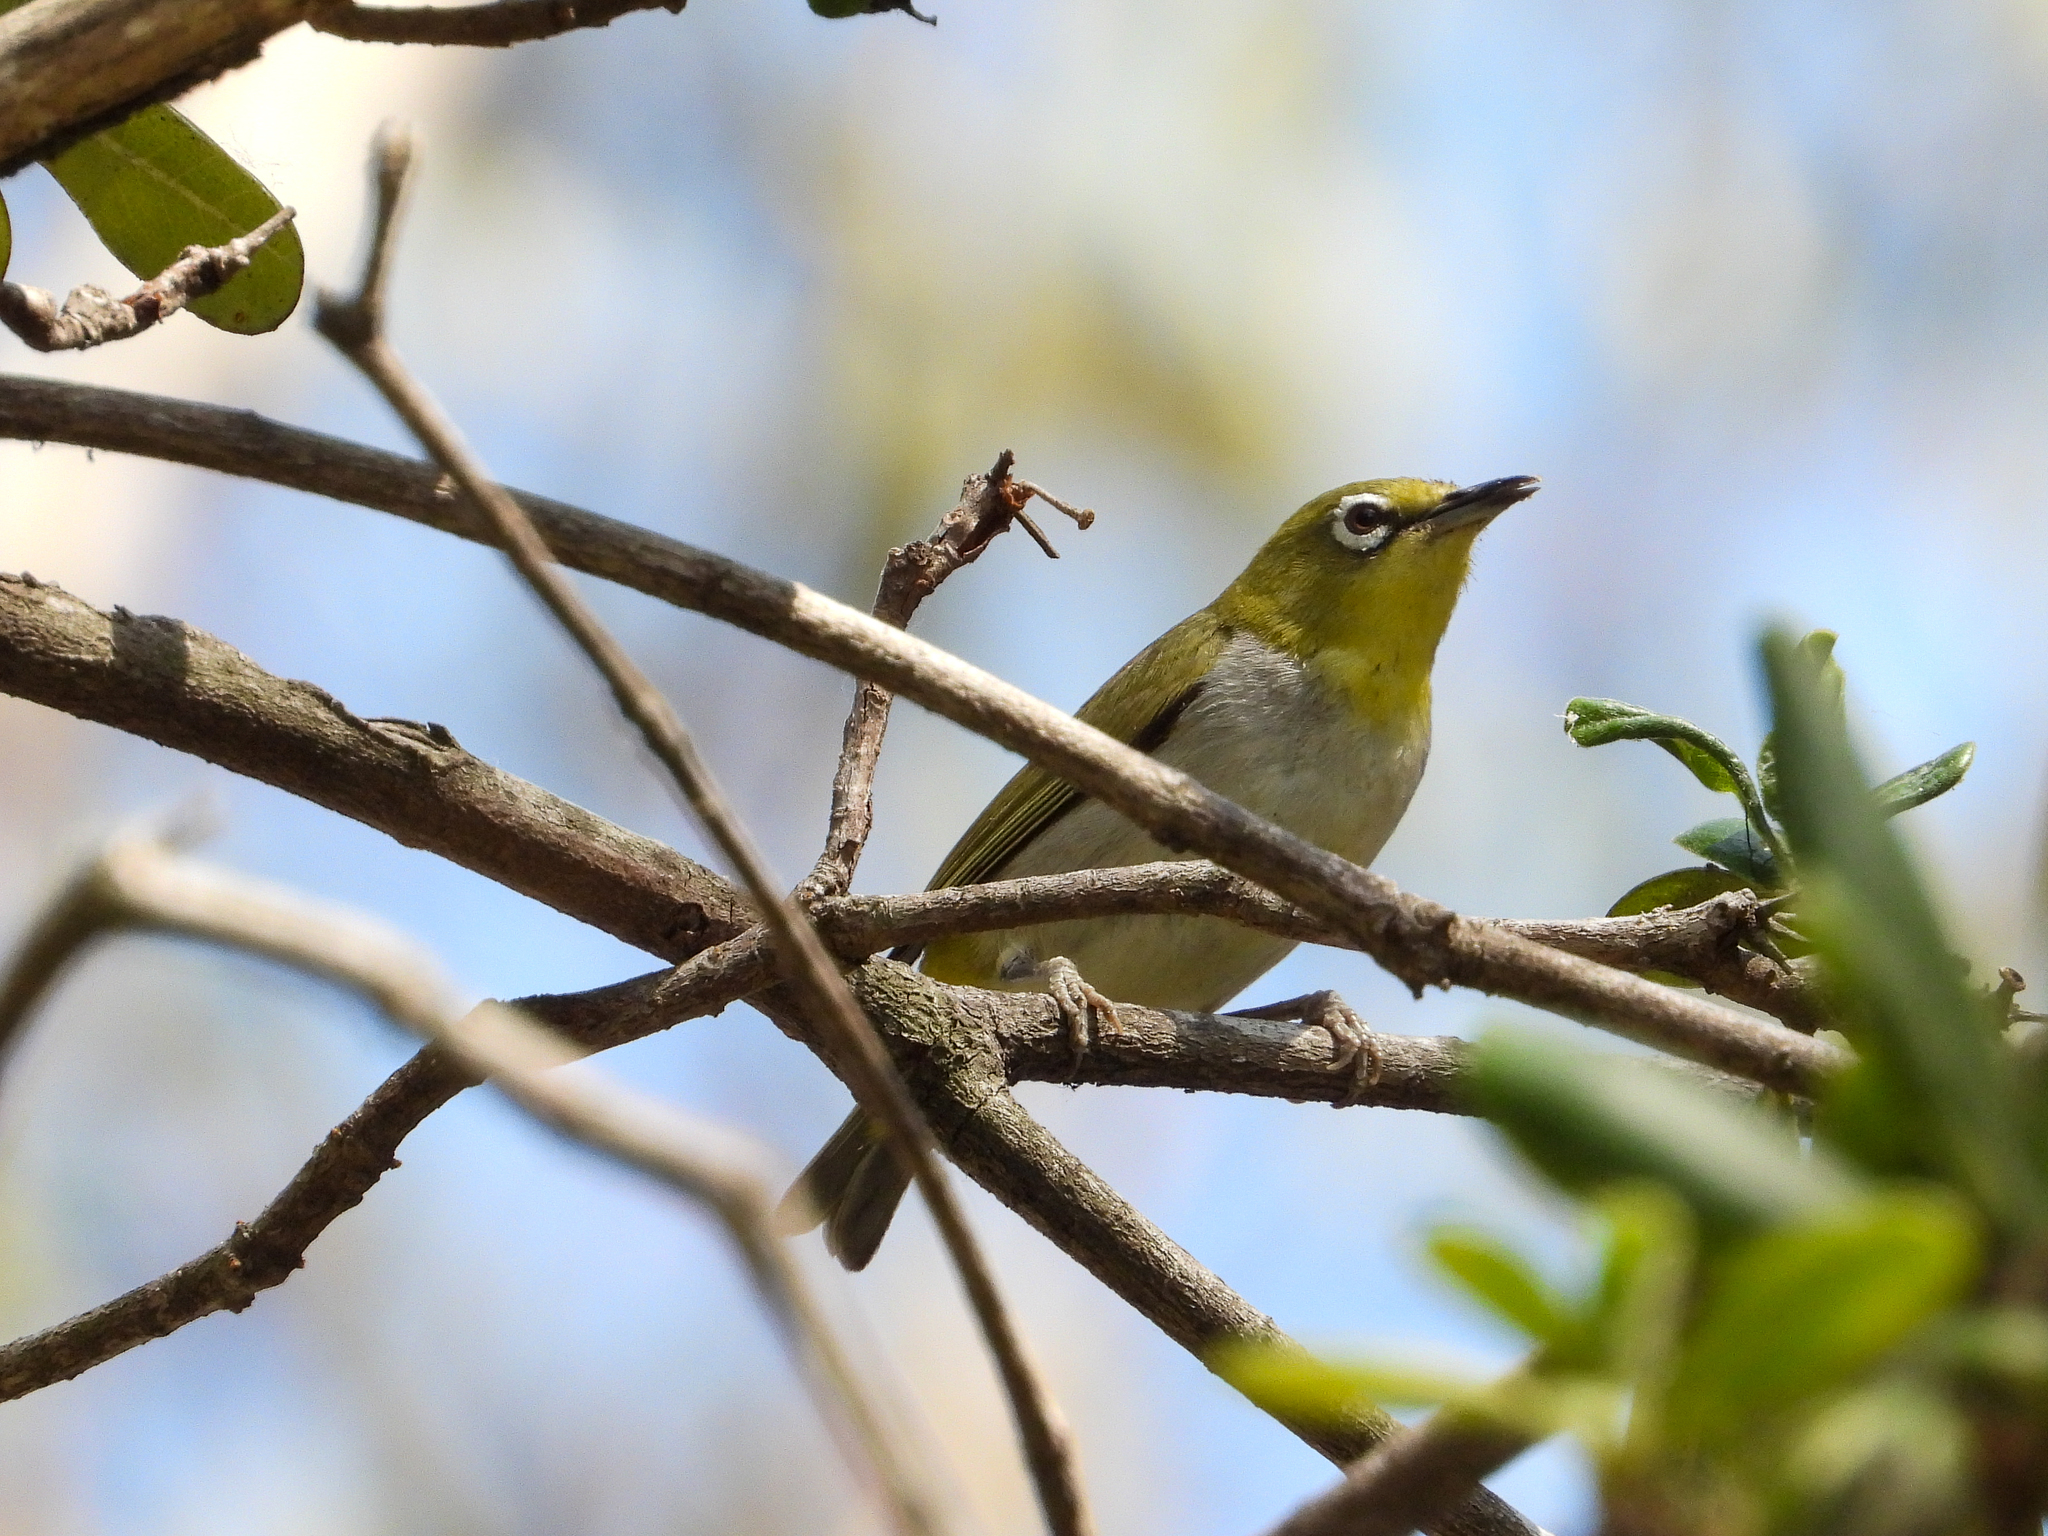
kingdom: Animalia
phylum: Chordata
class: Aves
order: Passeriformes
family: Zosteropidae
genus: Zosterops
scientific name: Zosterops simplex
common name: Swinhoe's white-eye
